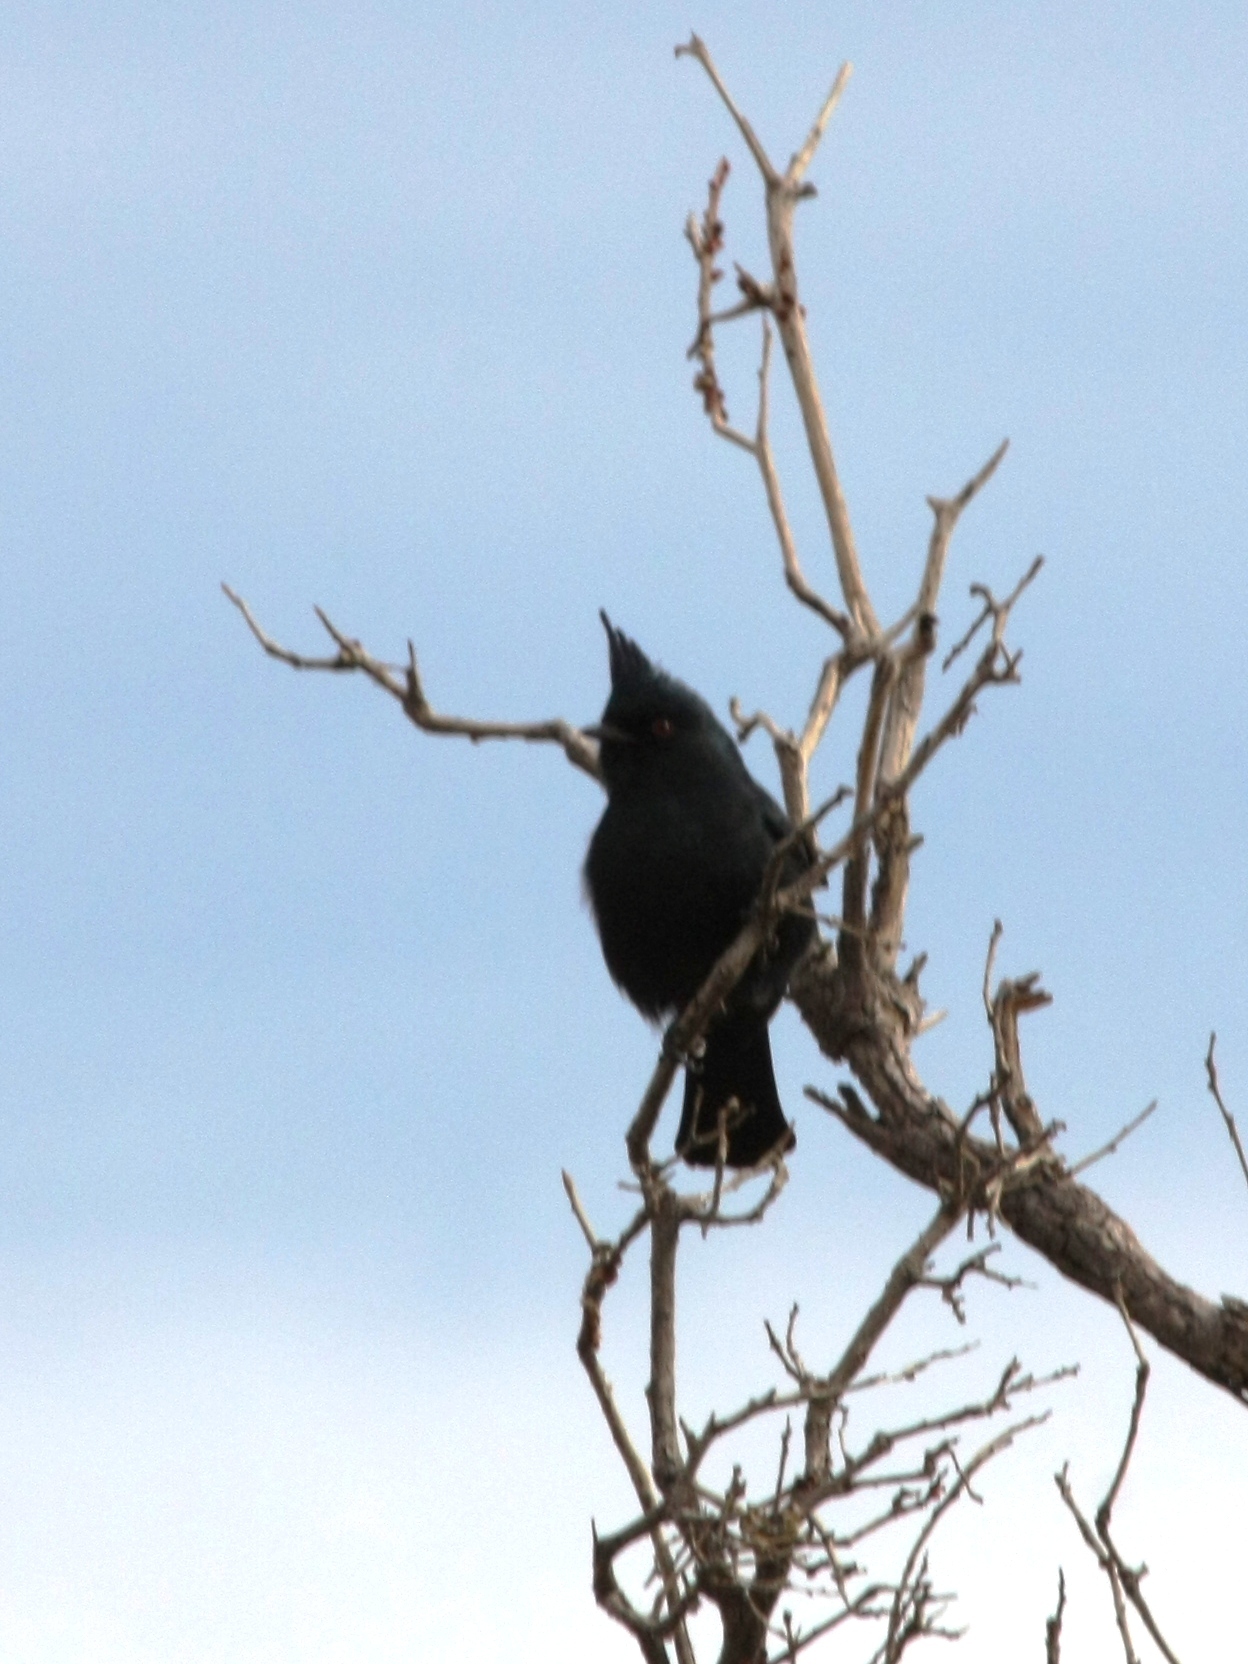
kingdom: Animalia
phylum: Chordata
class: Aves
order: Passeriformes
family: Ptilogonatidae
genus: Phainopepla
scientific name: Phainopepla nitens
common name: Phainopepla
